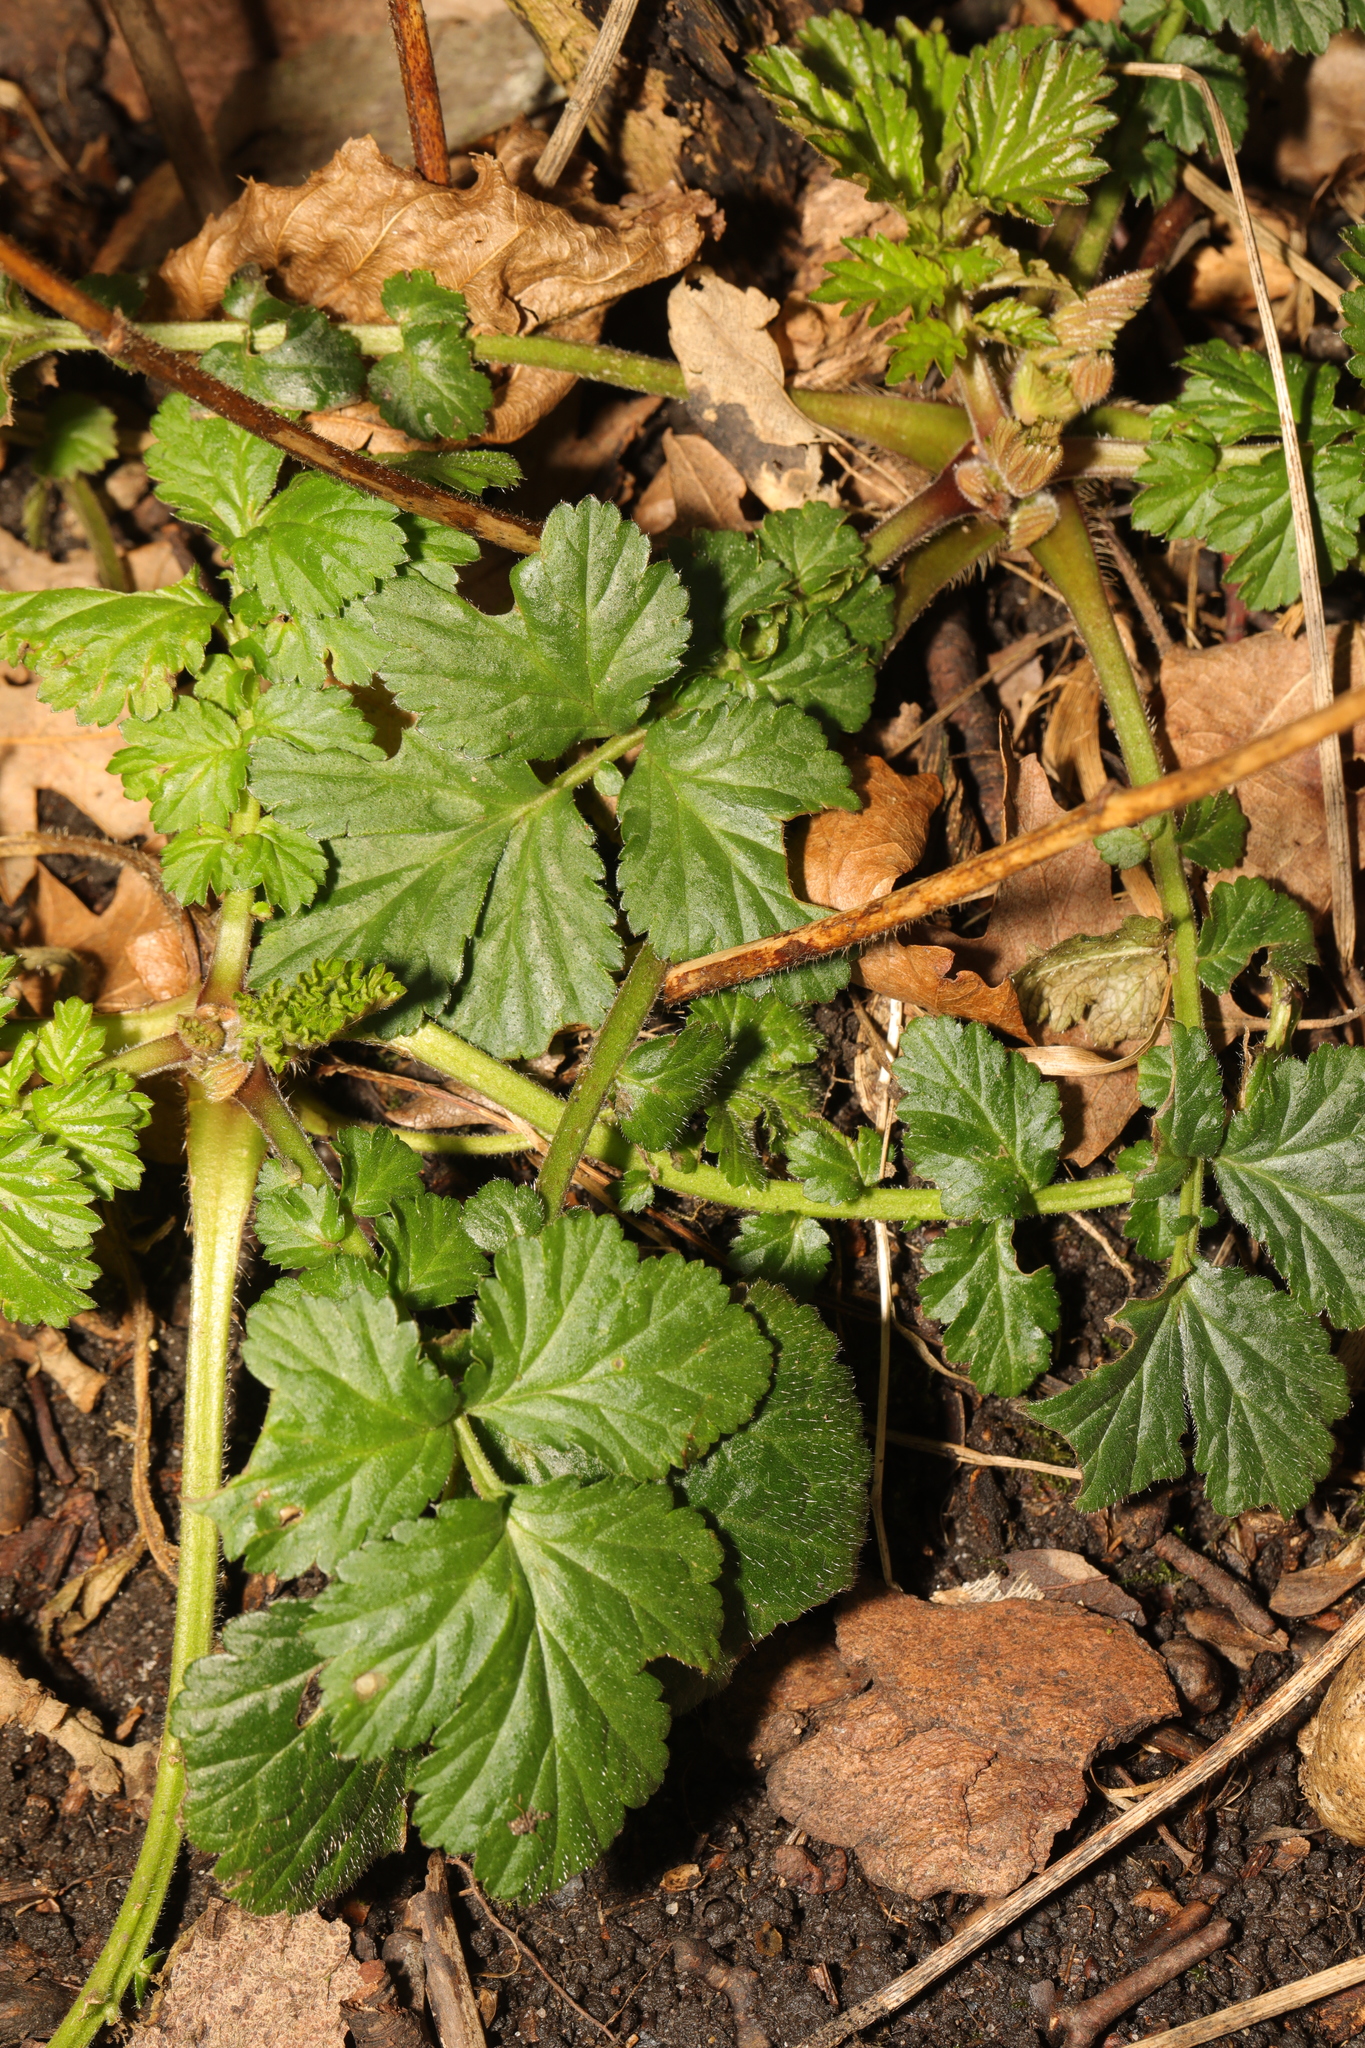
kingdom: Plantae
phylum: Tracheophyta
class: Magnoliopsida
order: Rosales
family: Rosaceae
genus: Geum
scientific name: Geum urbanum
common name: Wood avens
